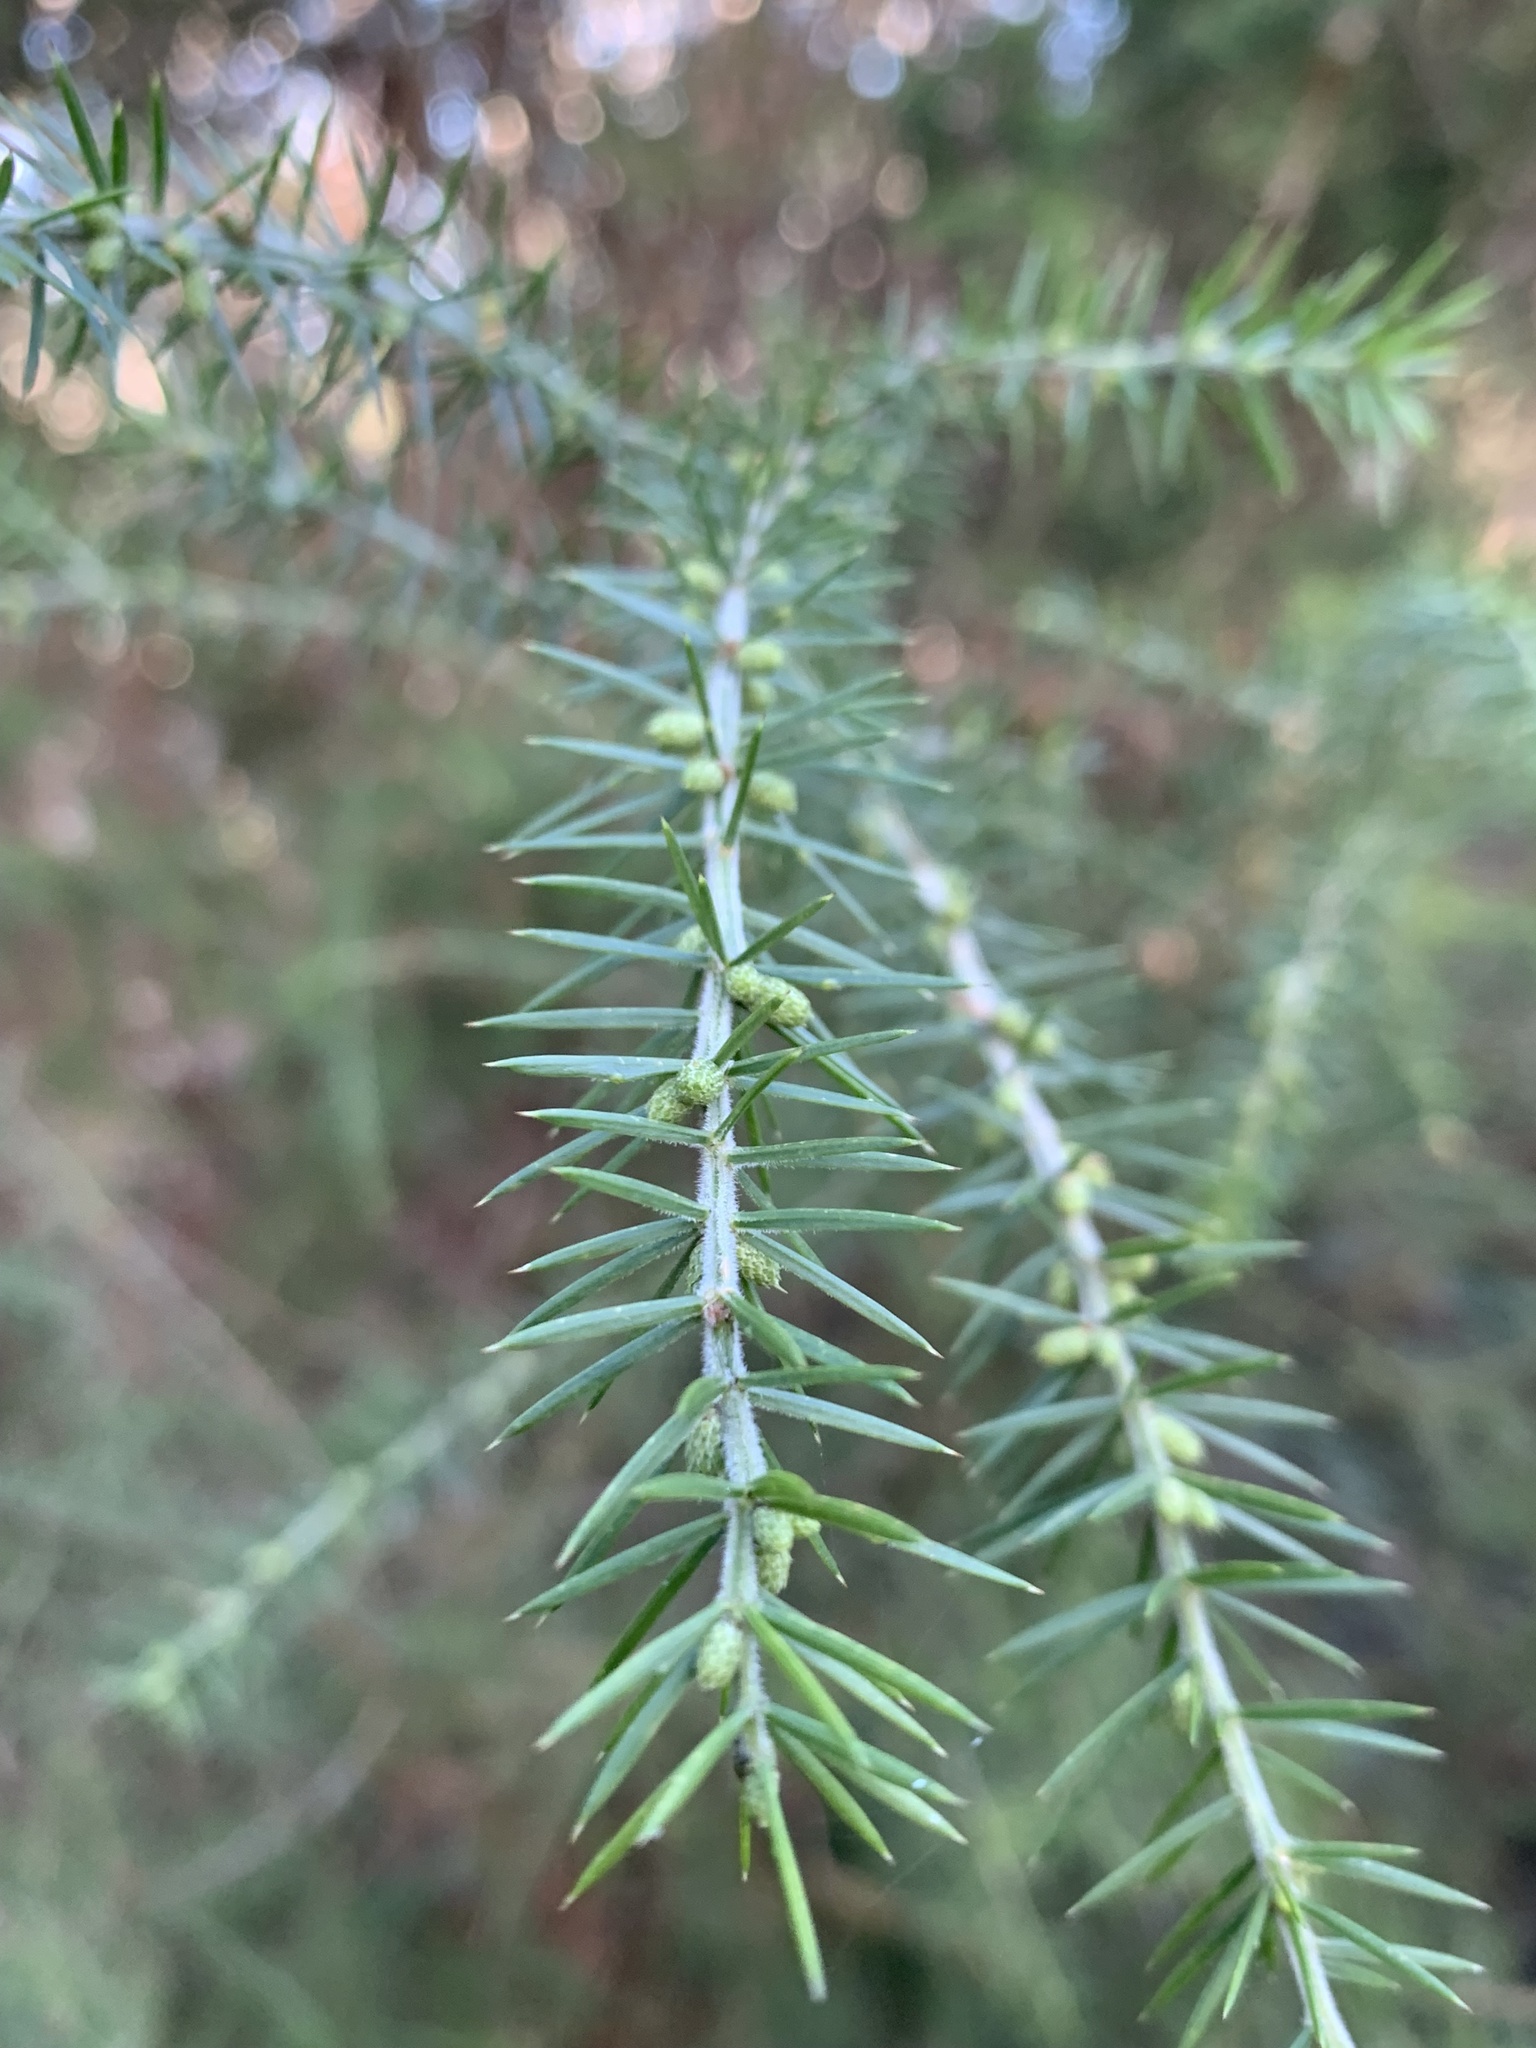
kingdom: Plantae
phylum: Tracheophyta
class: Magnoliopsida
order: Fabales
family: Fabaceae
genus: Acacia
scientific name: Acacia verticillata
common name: Prickly moses
